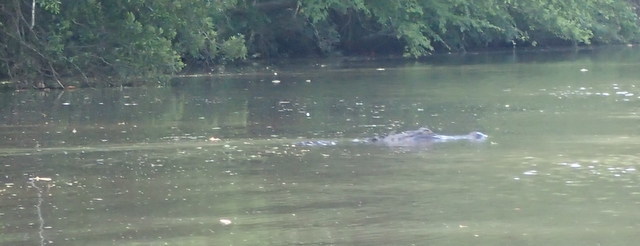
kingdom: Animalia
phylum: Chordata
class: Crocodylia
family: Alligatoridae
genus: Alligator
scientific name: Alligator mississippiensis
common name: American alligator
